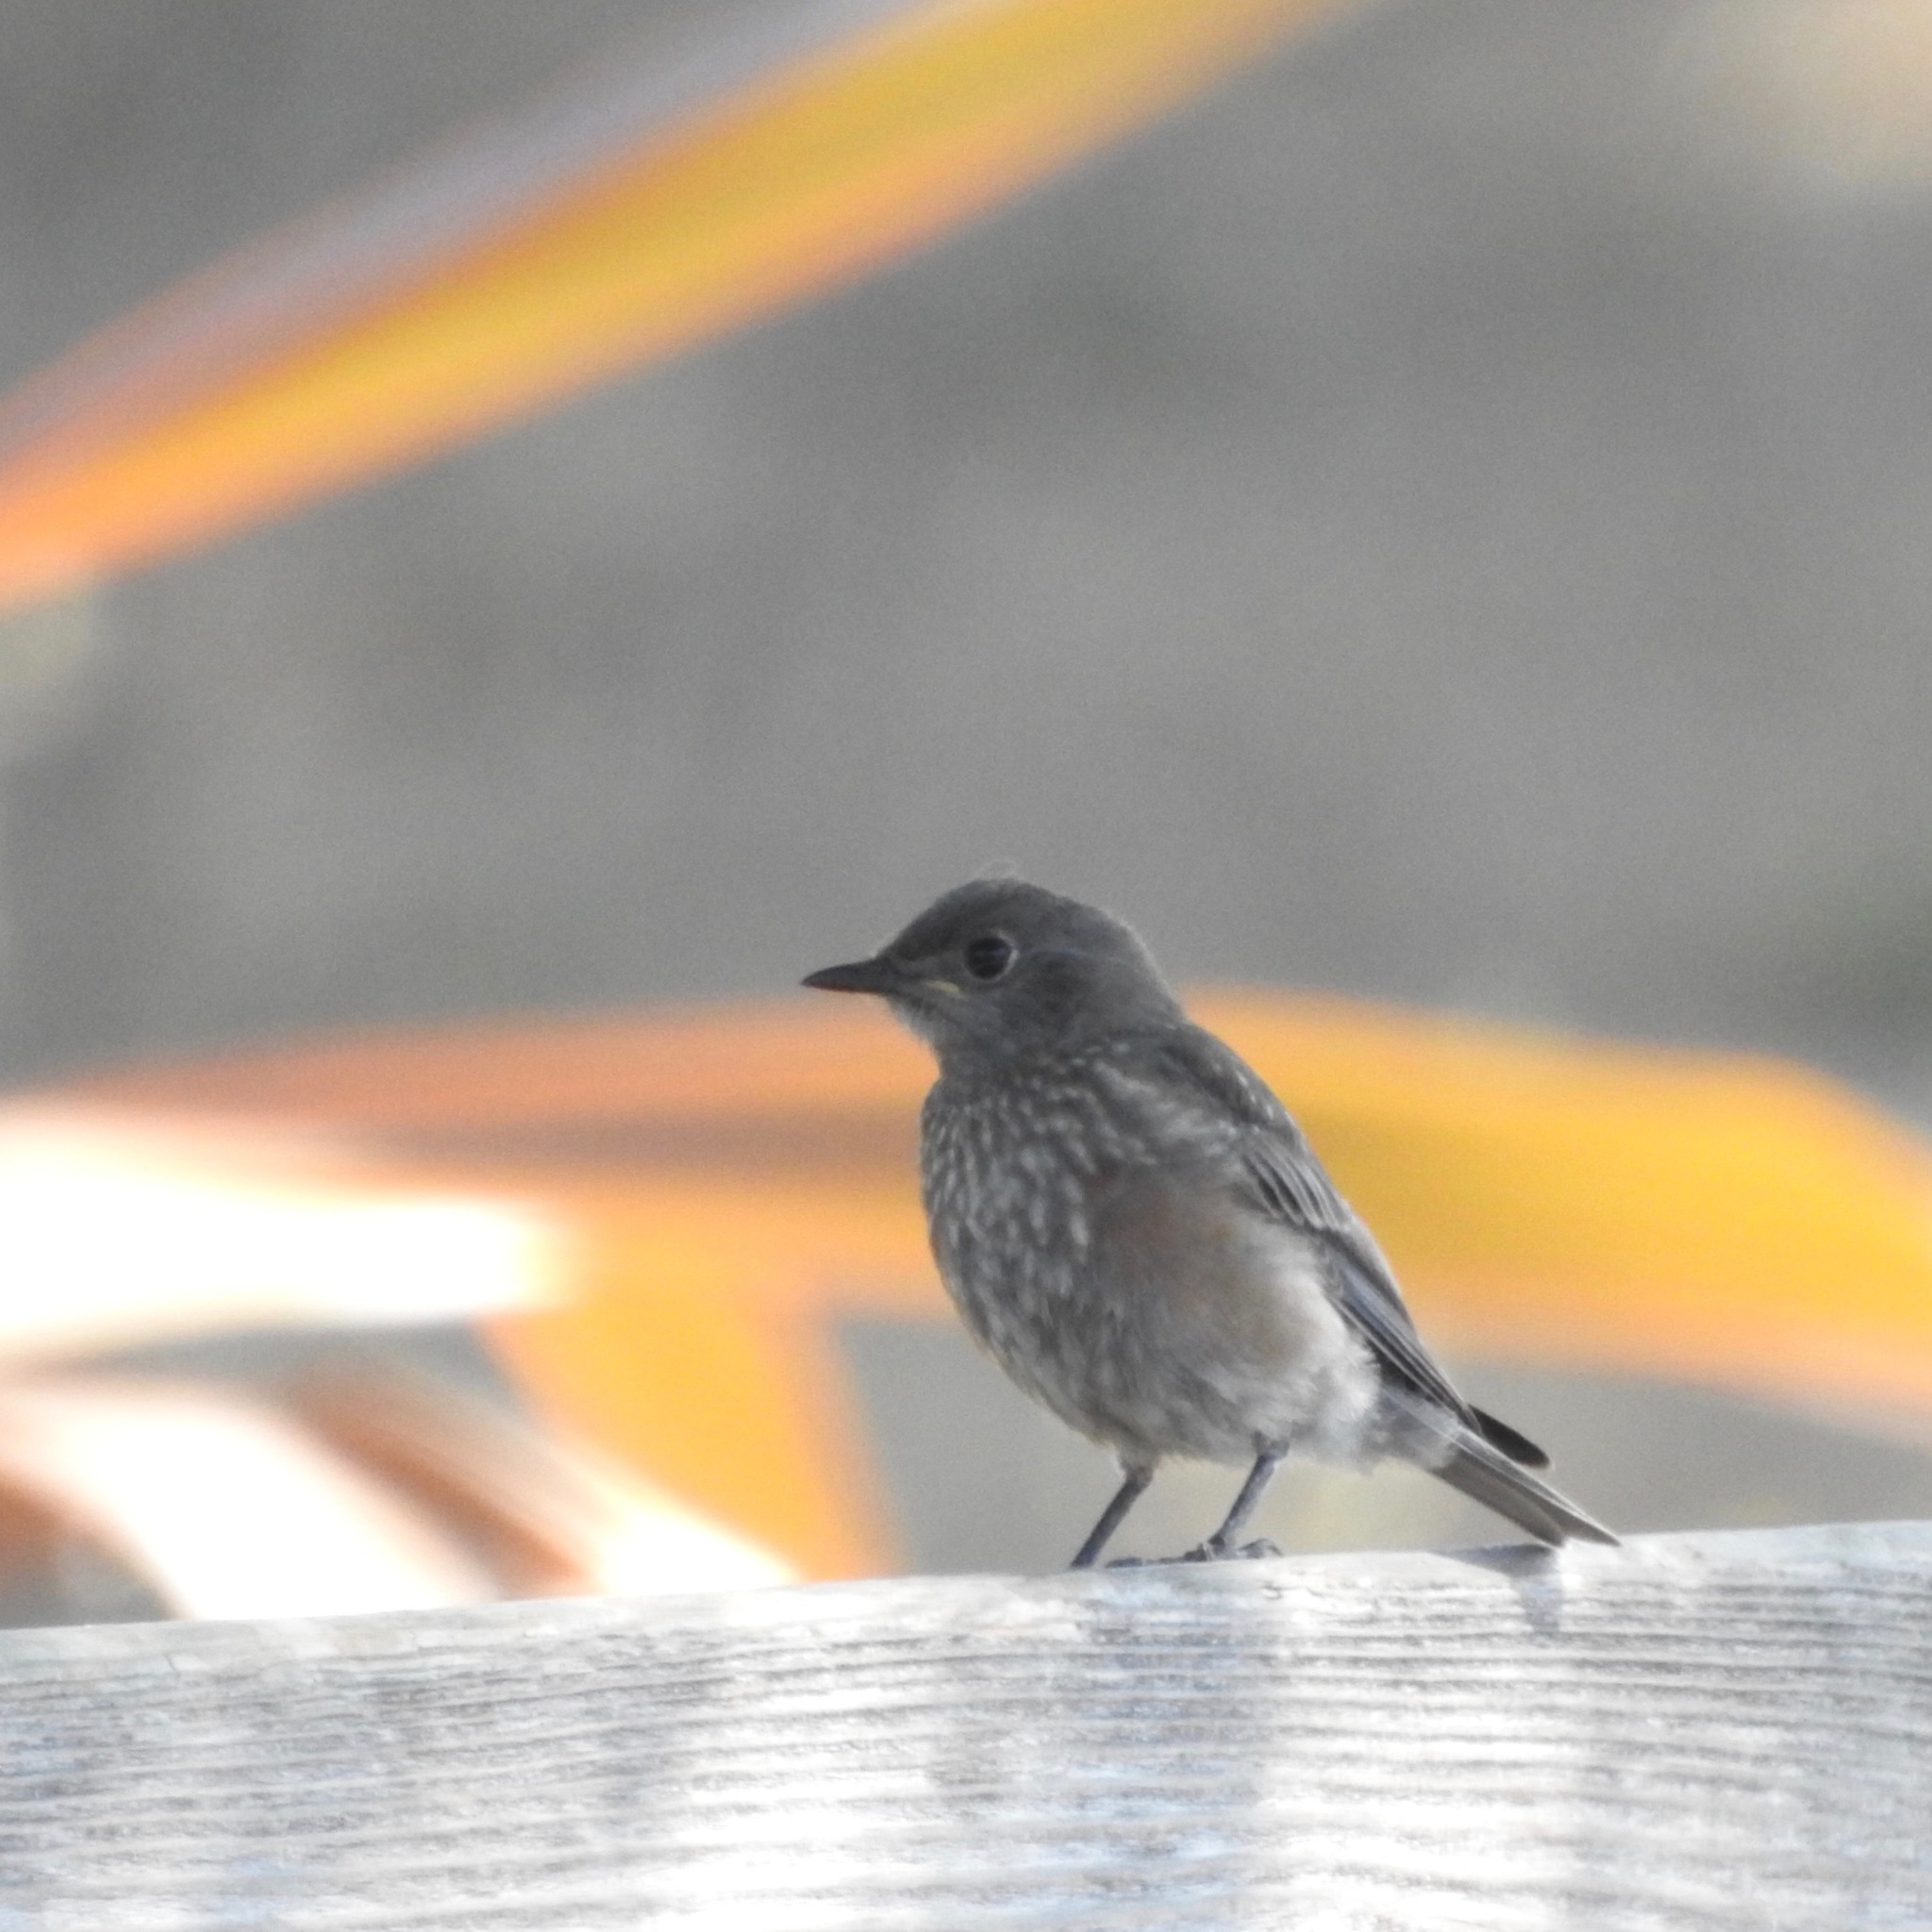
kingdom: Animalia
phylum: Chordata
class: Aves
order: Passeriformes
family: Turdidae
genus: Sialia
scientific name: Sialia mexicana
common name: Western bluebird
